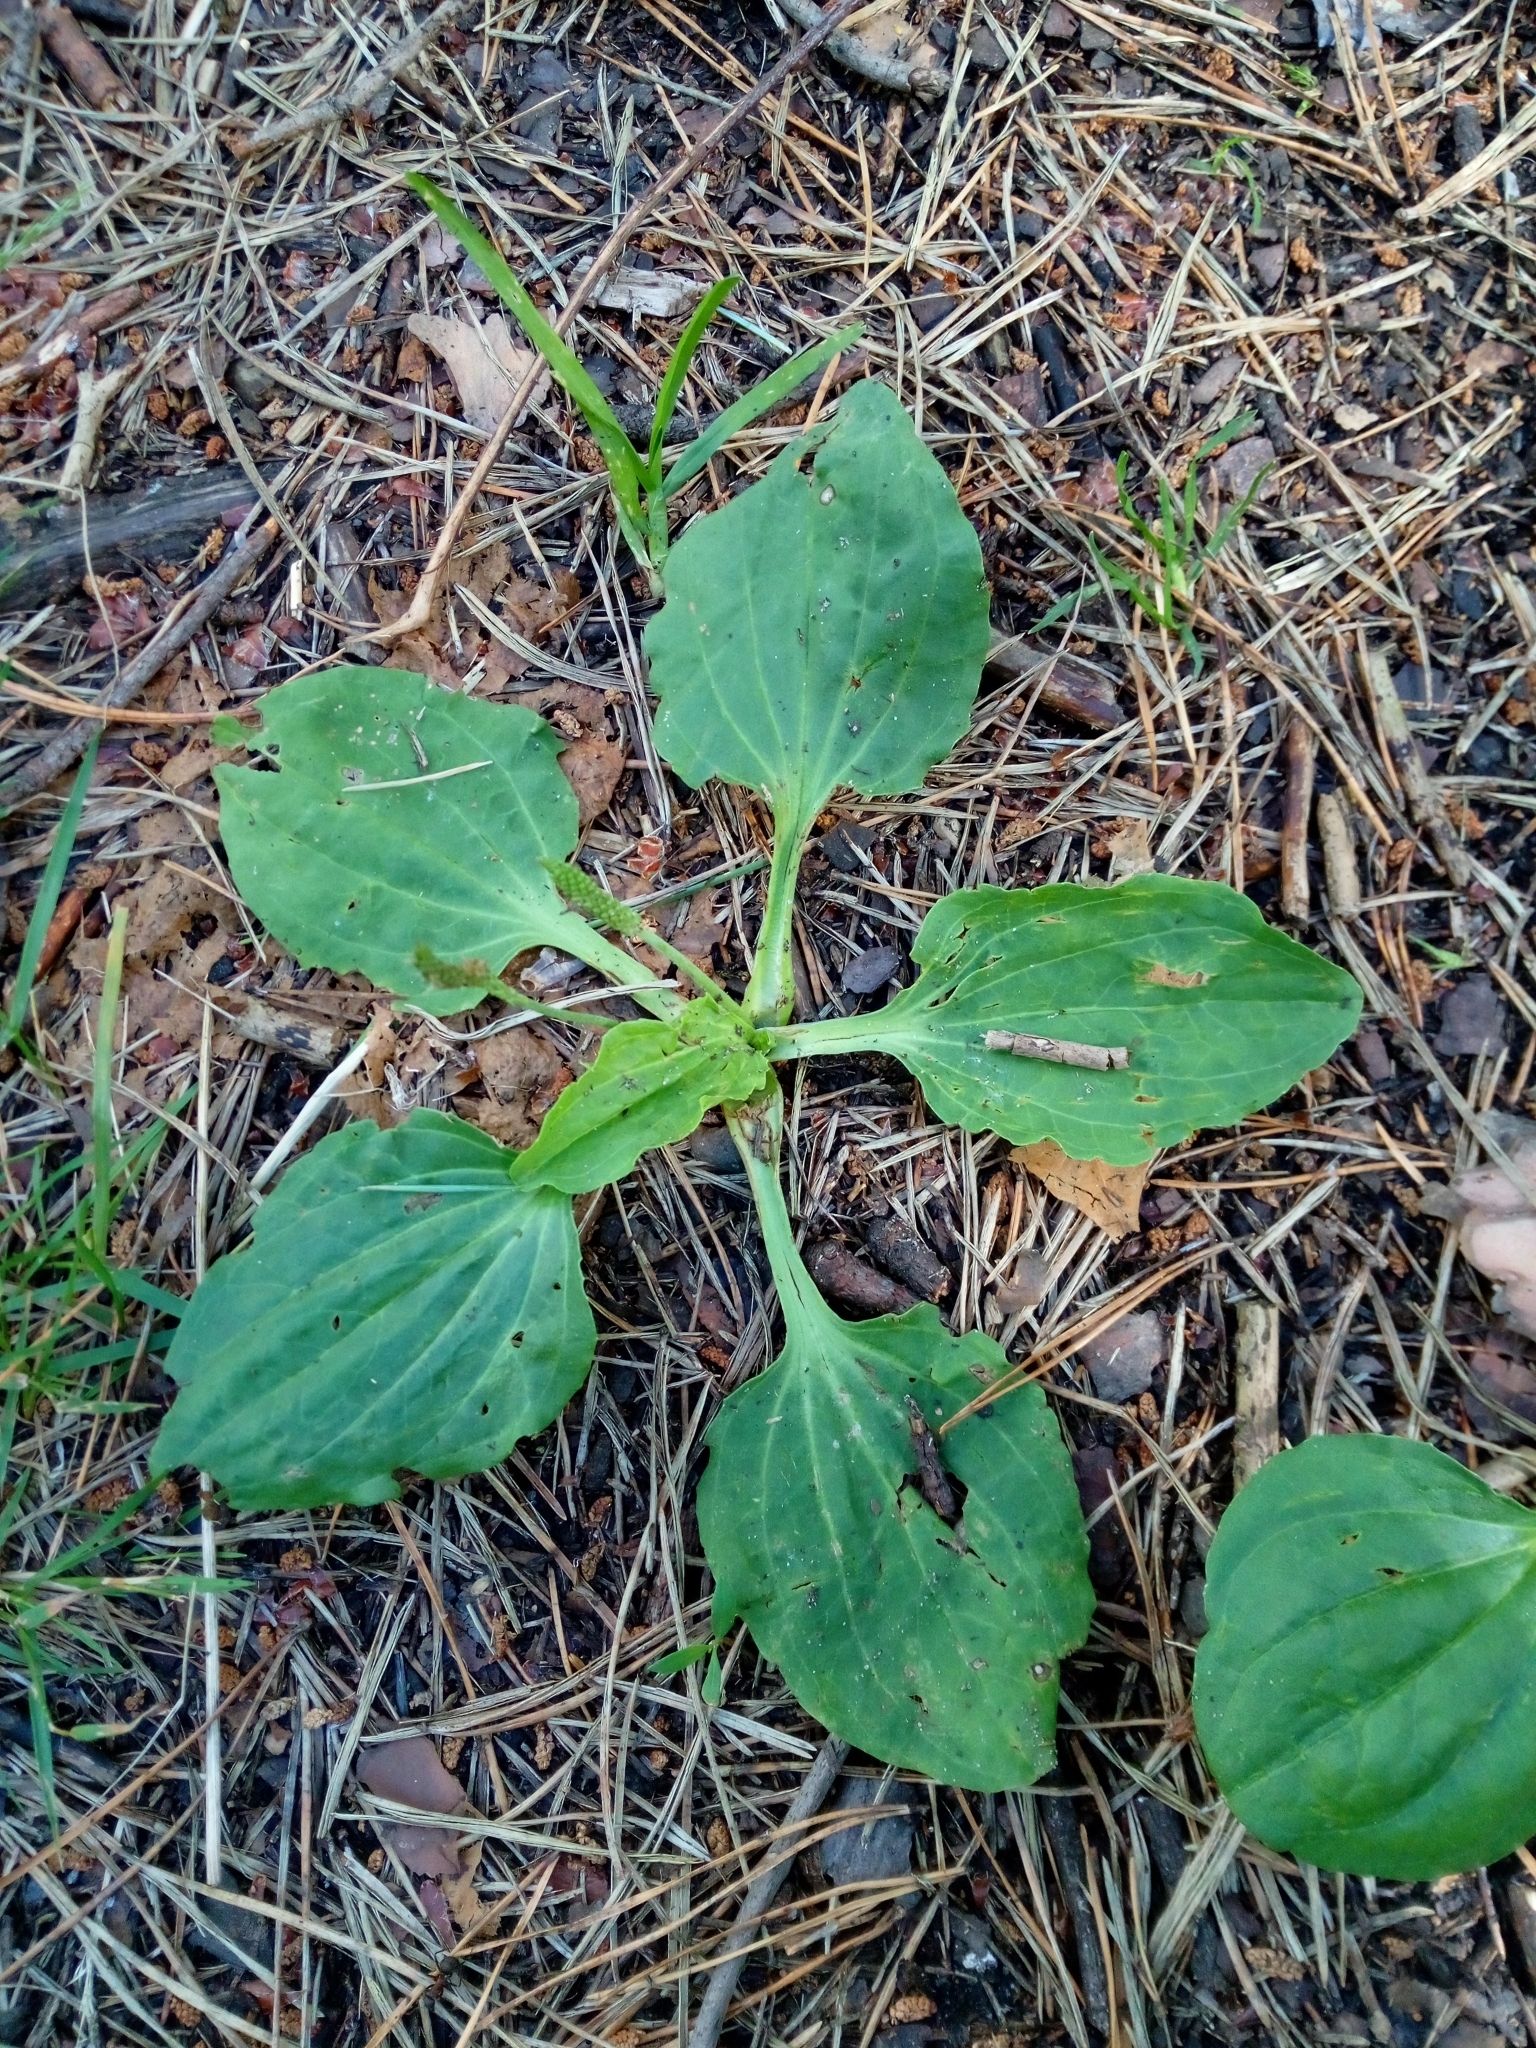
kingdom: Plantae
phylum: Tracheophyta
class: Magnoliopsida
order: Lamiales
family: Plantaginaceae
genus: Plantago
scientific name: Plantago major
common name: Common plantain
